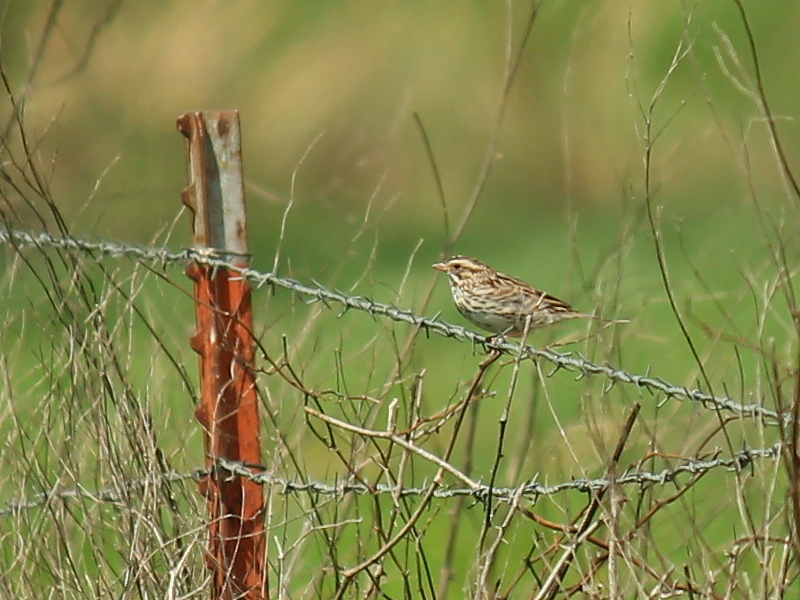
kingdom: Animalia
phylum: Chordata
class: Aves
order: Passeriformes
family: Passerellidae
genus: Passerculus
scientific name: Passerculus sandwichensis
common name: Savannah sparrow
